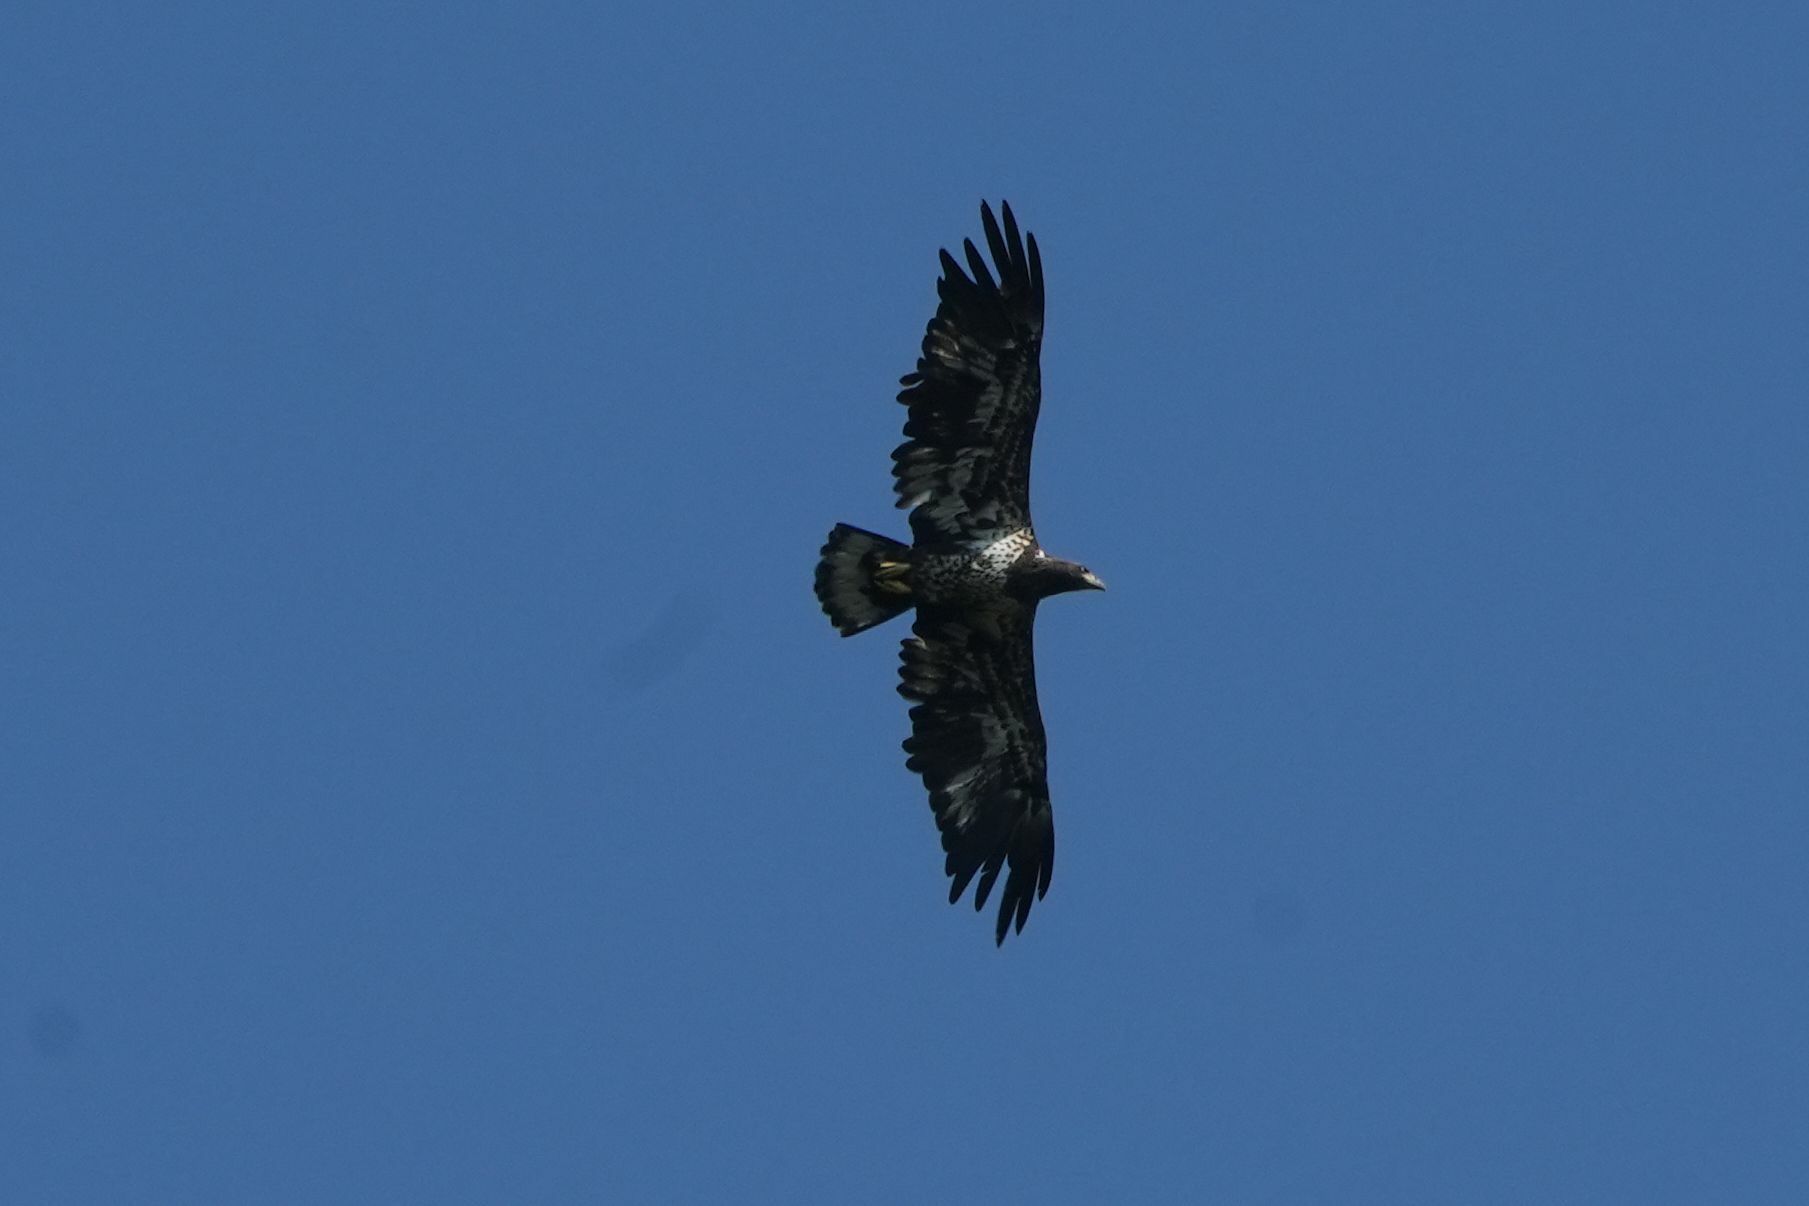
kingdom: Animalia
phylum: Chordata
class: Aves
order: Accipitriformes
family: Accipitridae
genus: Haliaeetus
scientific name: Haliaeetus leucocephalus
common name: Bald eagle
